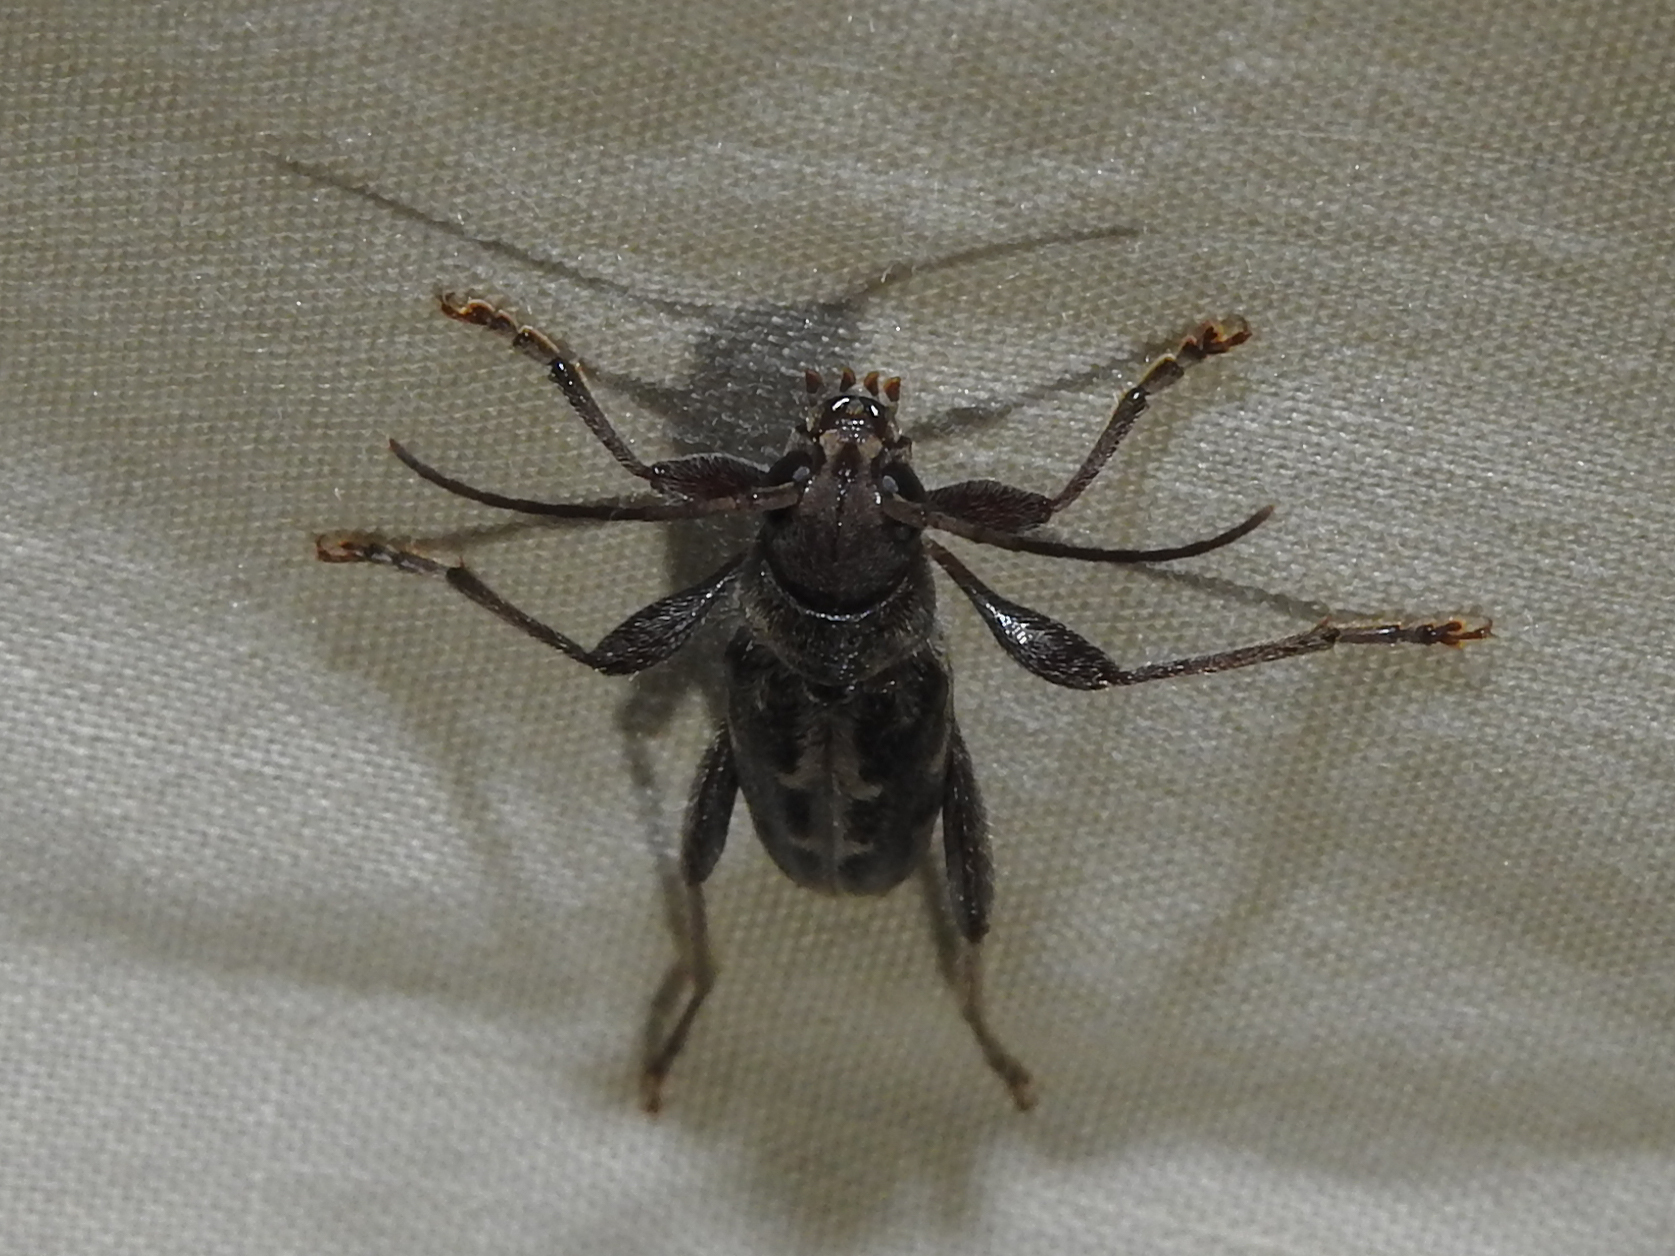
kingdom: Animalia
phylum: Arthropoda
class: Insecta
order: Coleoptera
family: Cerambycidae
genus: Xylotrechus
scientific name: Xylotrechus sagittatus
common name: Arrowhead borer
